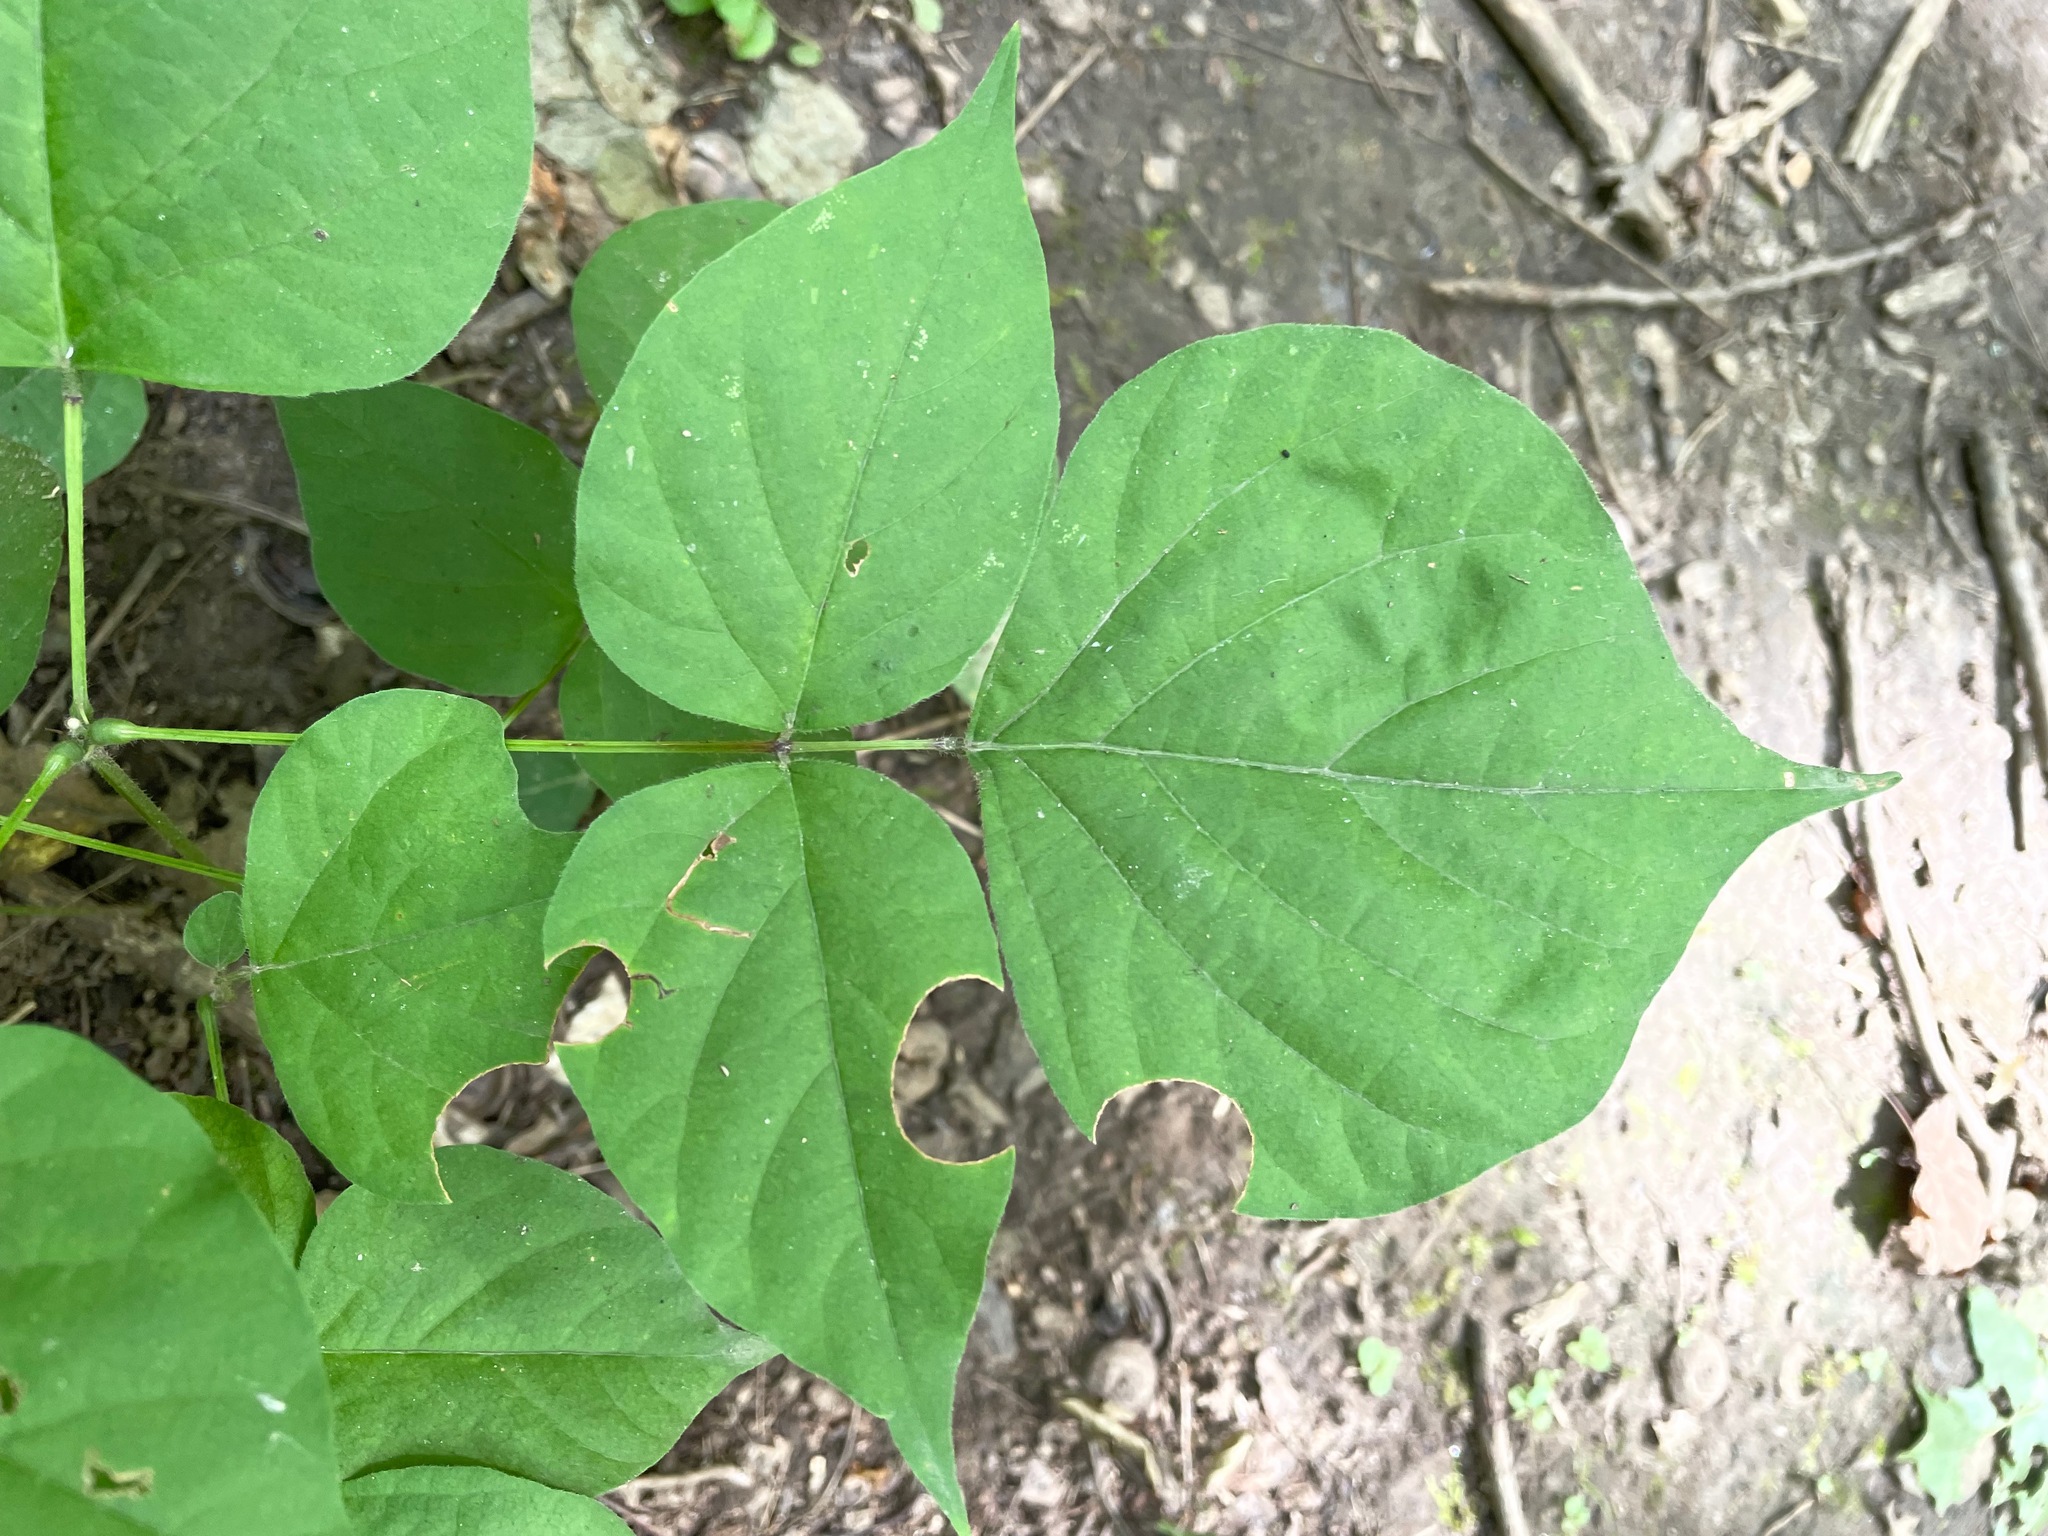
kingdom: Plantae
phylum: Tracheophyta
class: Magnoliopsida
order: Fabales
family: Fabaceae
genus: Hylodesmum
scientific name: Hylodesmum glutinosum
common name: Clustered-leaved tick-trefoil
